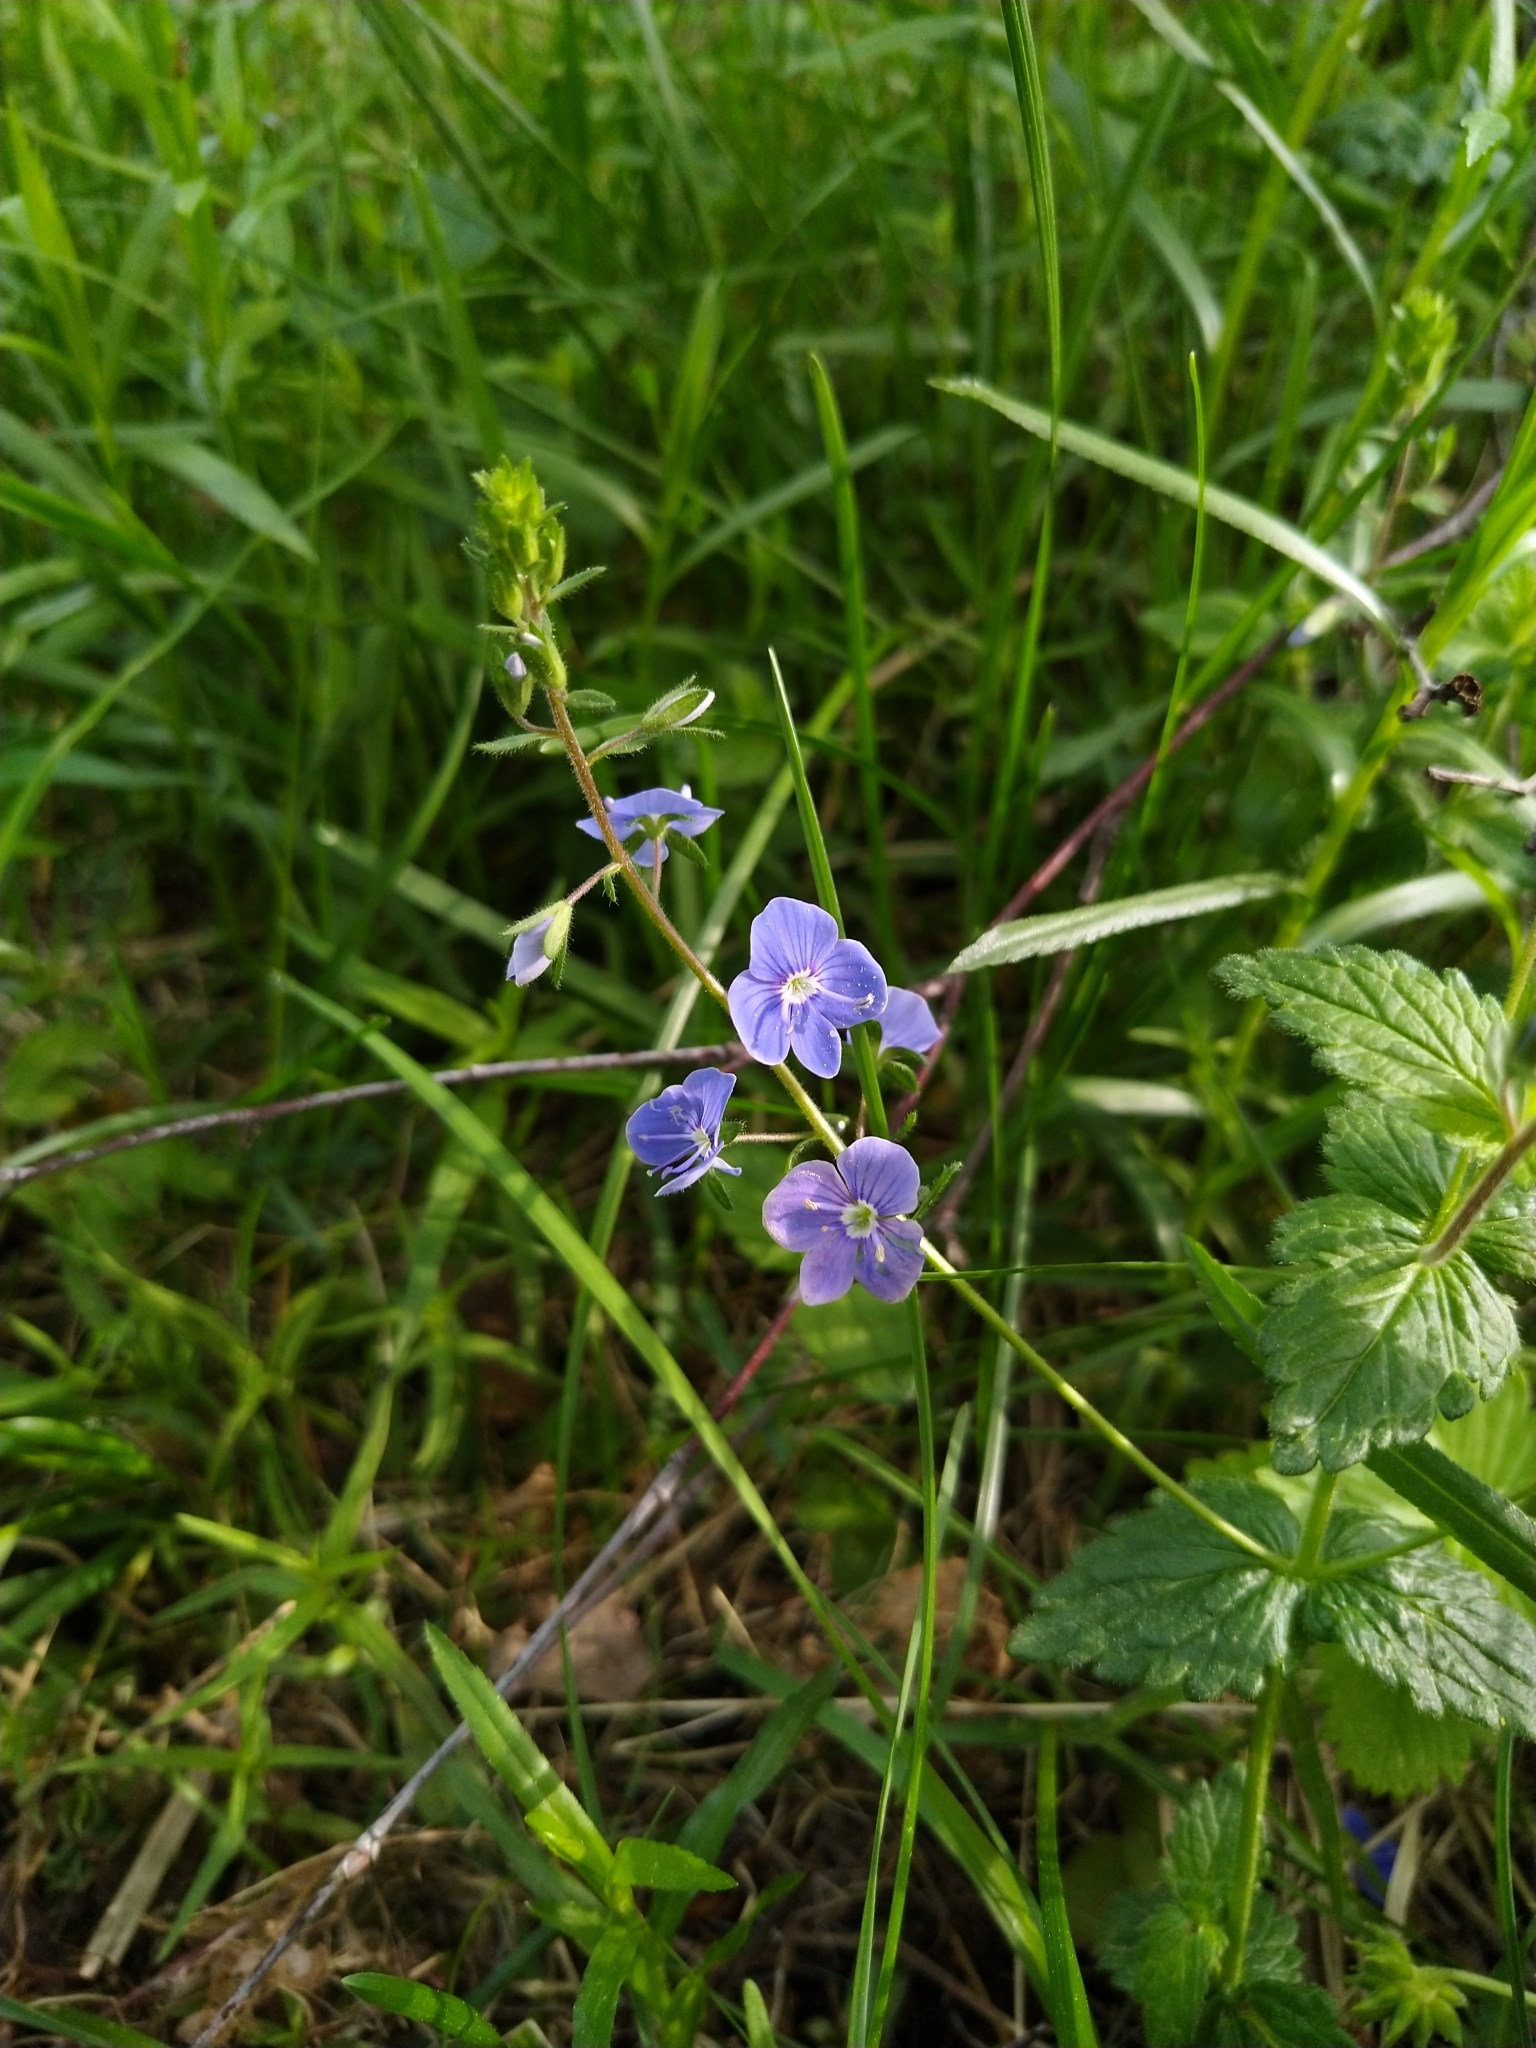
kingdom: Plantae
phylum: Tracheophyta
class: Magnoliopsida
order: Lamiales
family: Plantaginaceae
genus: Veronica
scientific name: Veronica chamaedrys
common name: Germander speedwell
